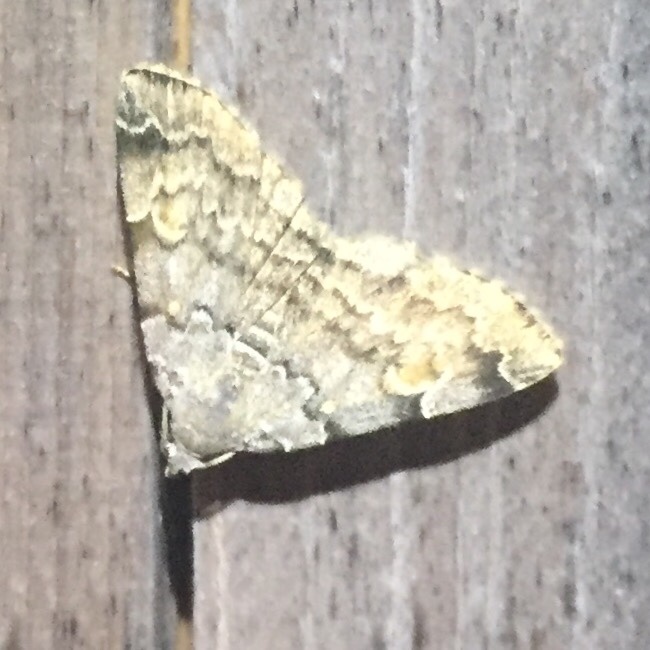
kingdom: Animalia
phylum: Arthropoda
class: Insecta
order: Lepidoptera
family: Erebidae
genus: Idia
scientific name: Idia americalis
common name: American idia moth
